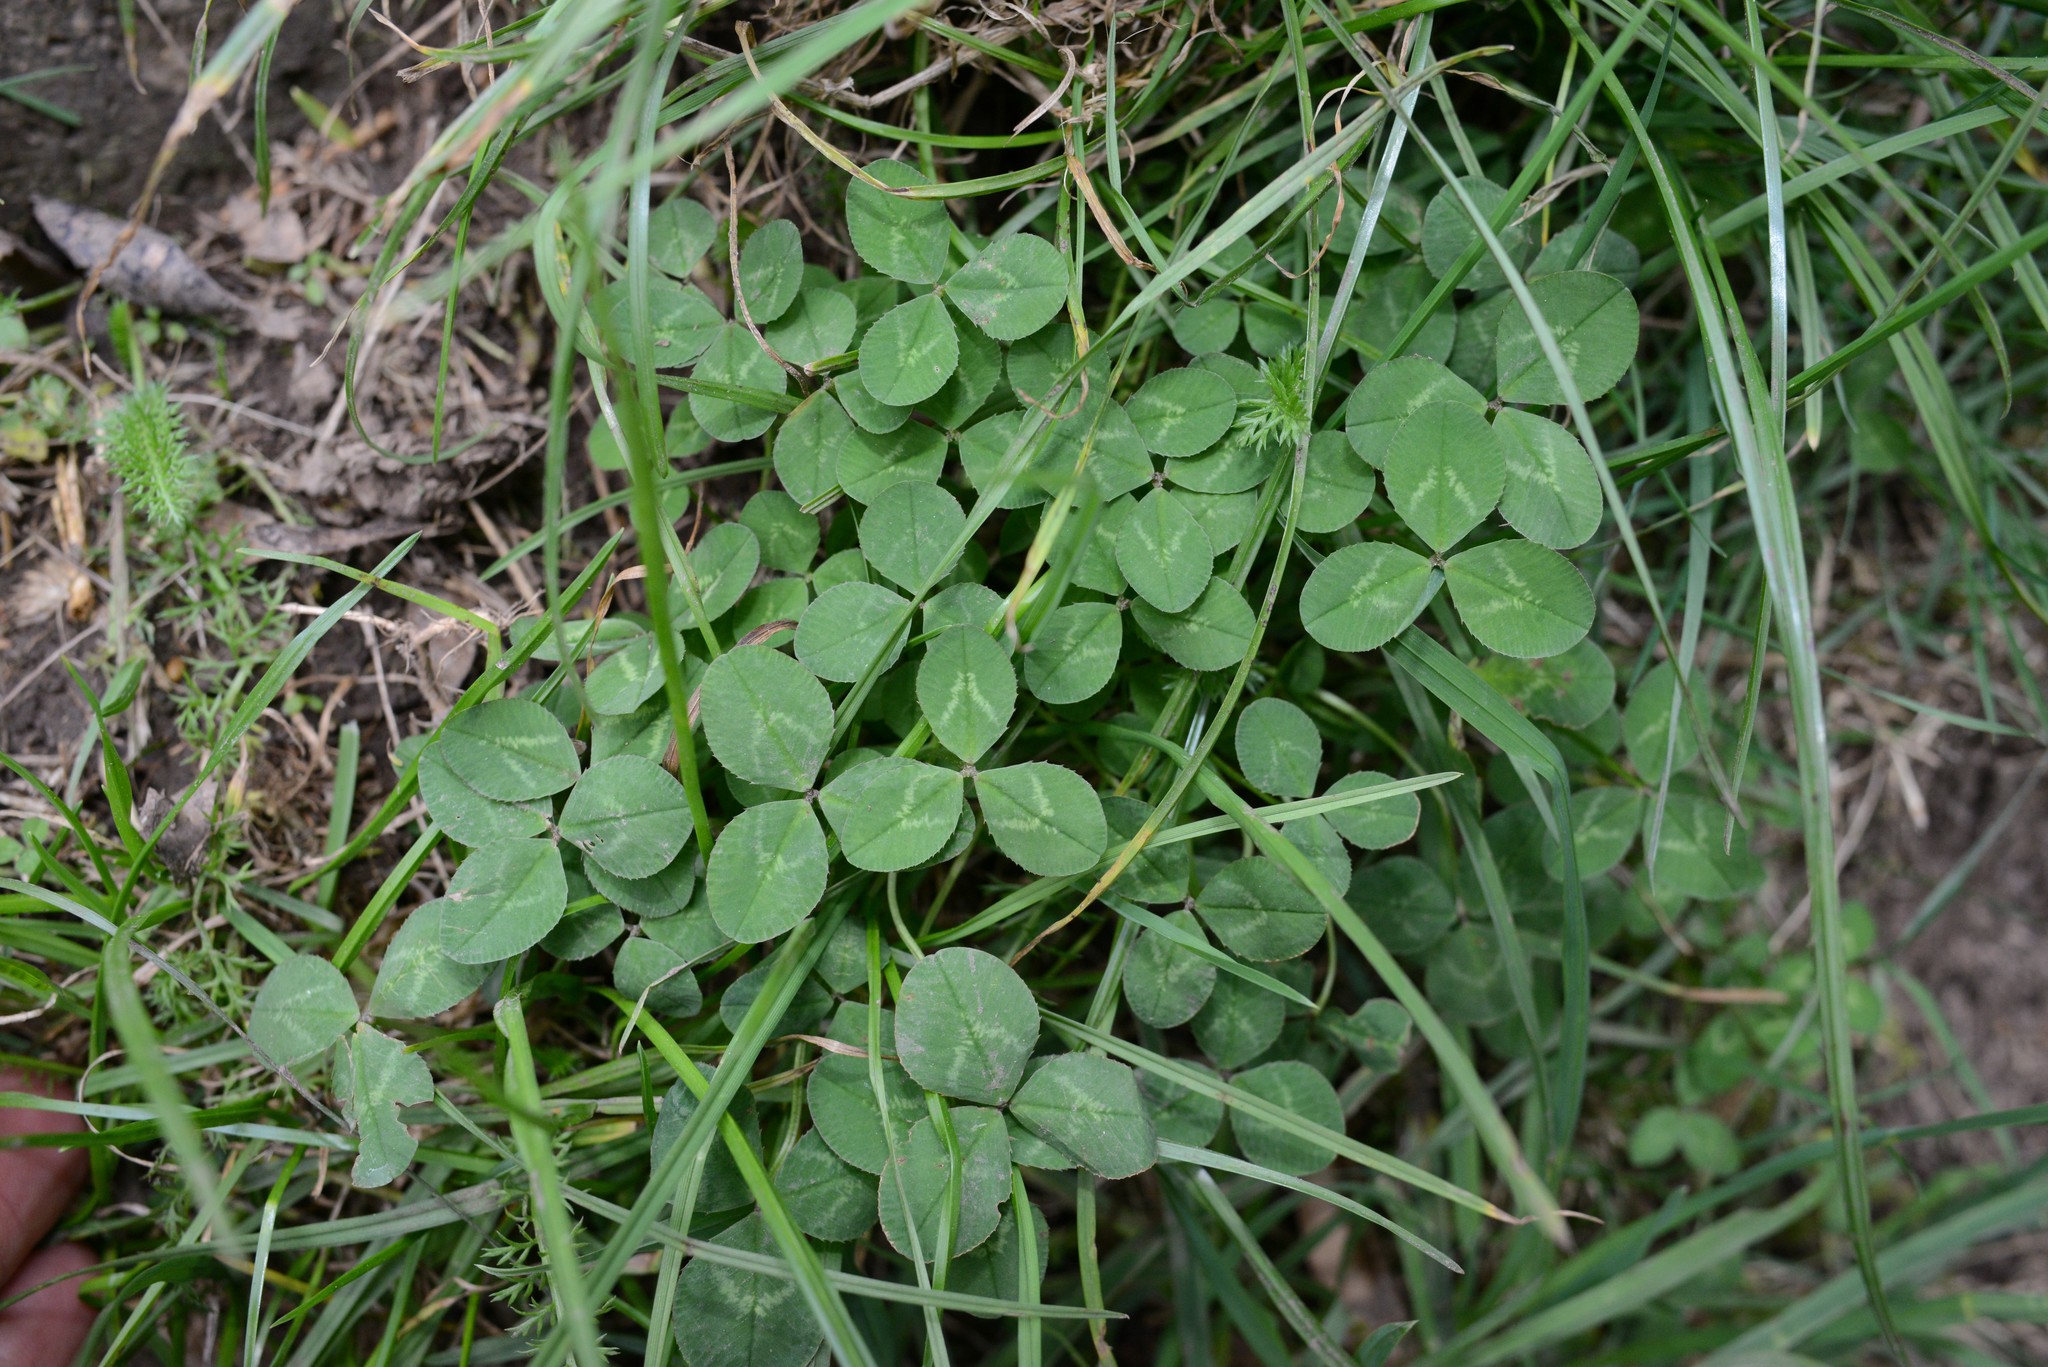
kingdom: Plantae
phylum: Tracheophyta
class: Magnoliopsida
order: Fabales
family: Fabaceae
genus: Trifolium
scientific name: Trifolium repens
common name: White clover
